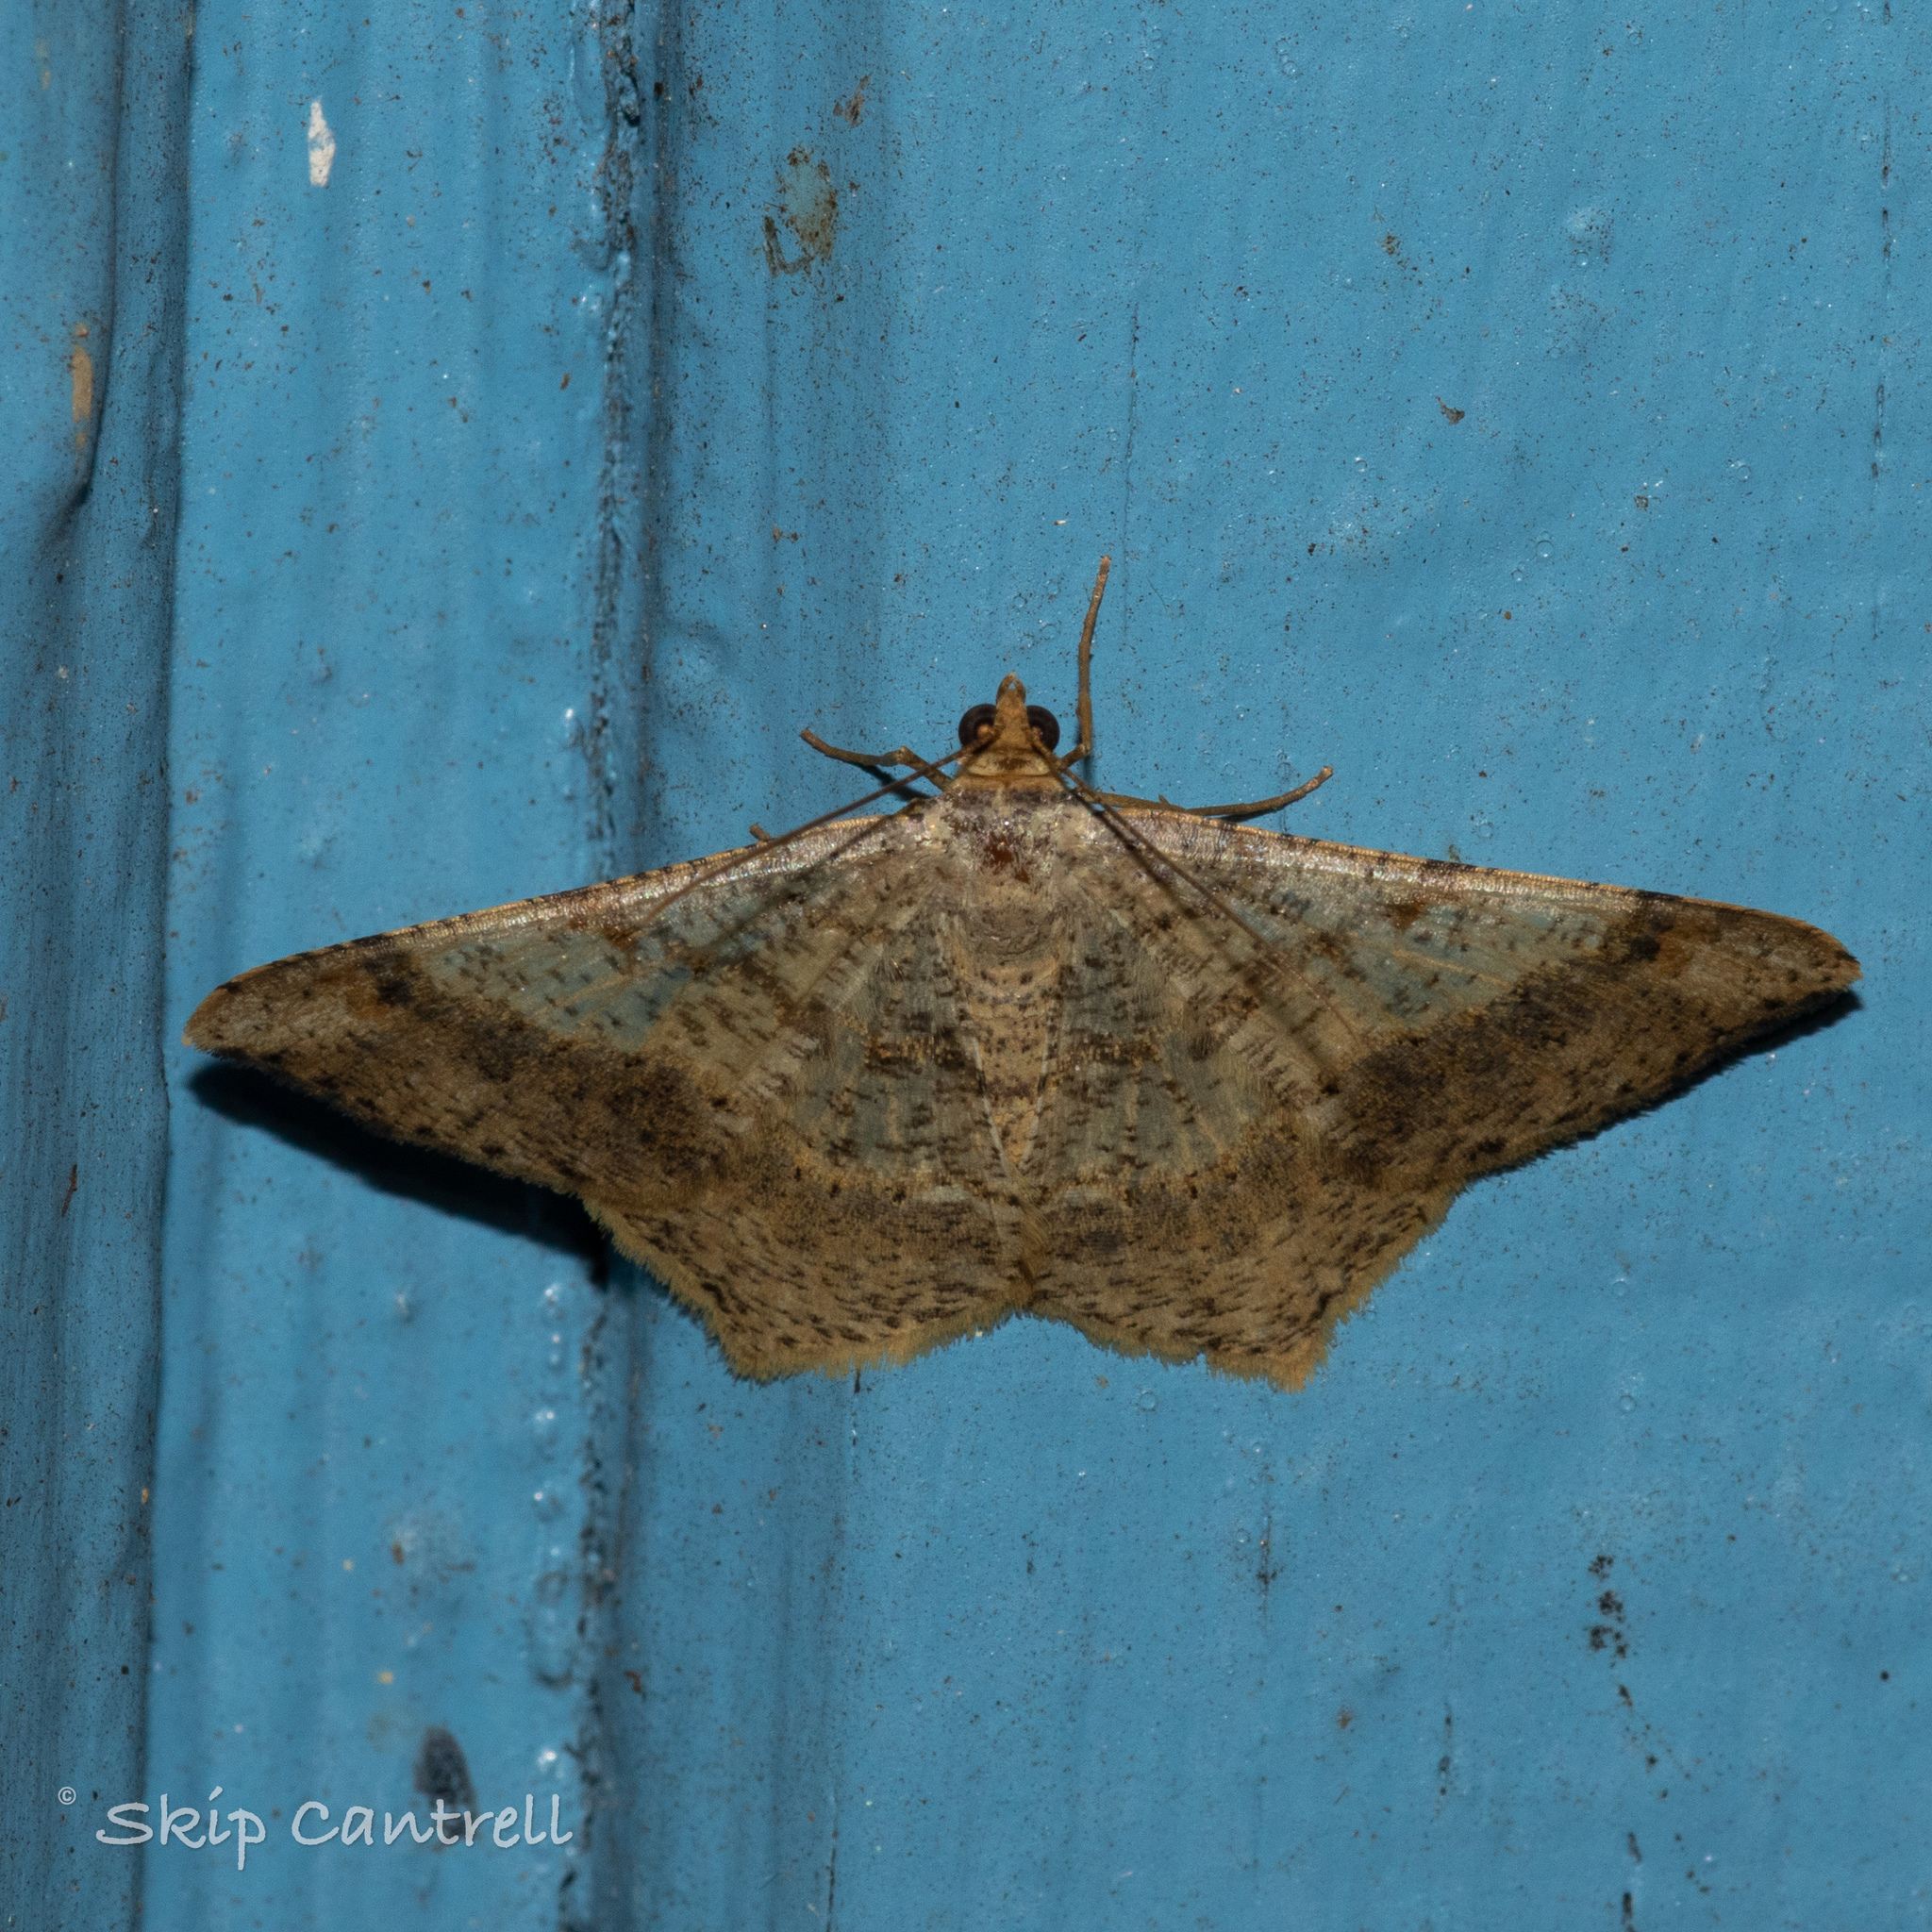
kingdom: Animalia
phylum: Arthropoda
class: Insecta
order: Lepidoptera
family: Geometridae
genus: Macaria
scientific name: Macaria abydata
